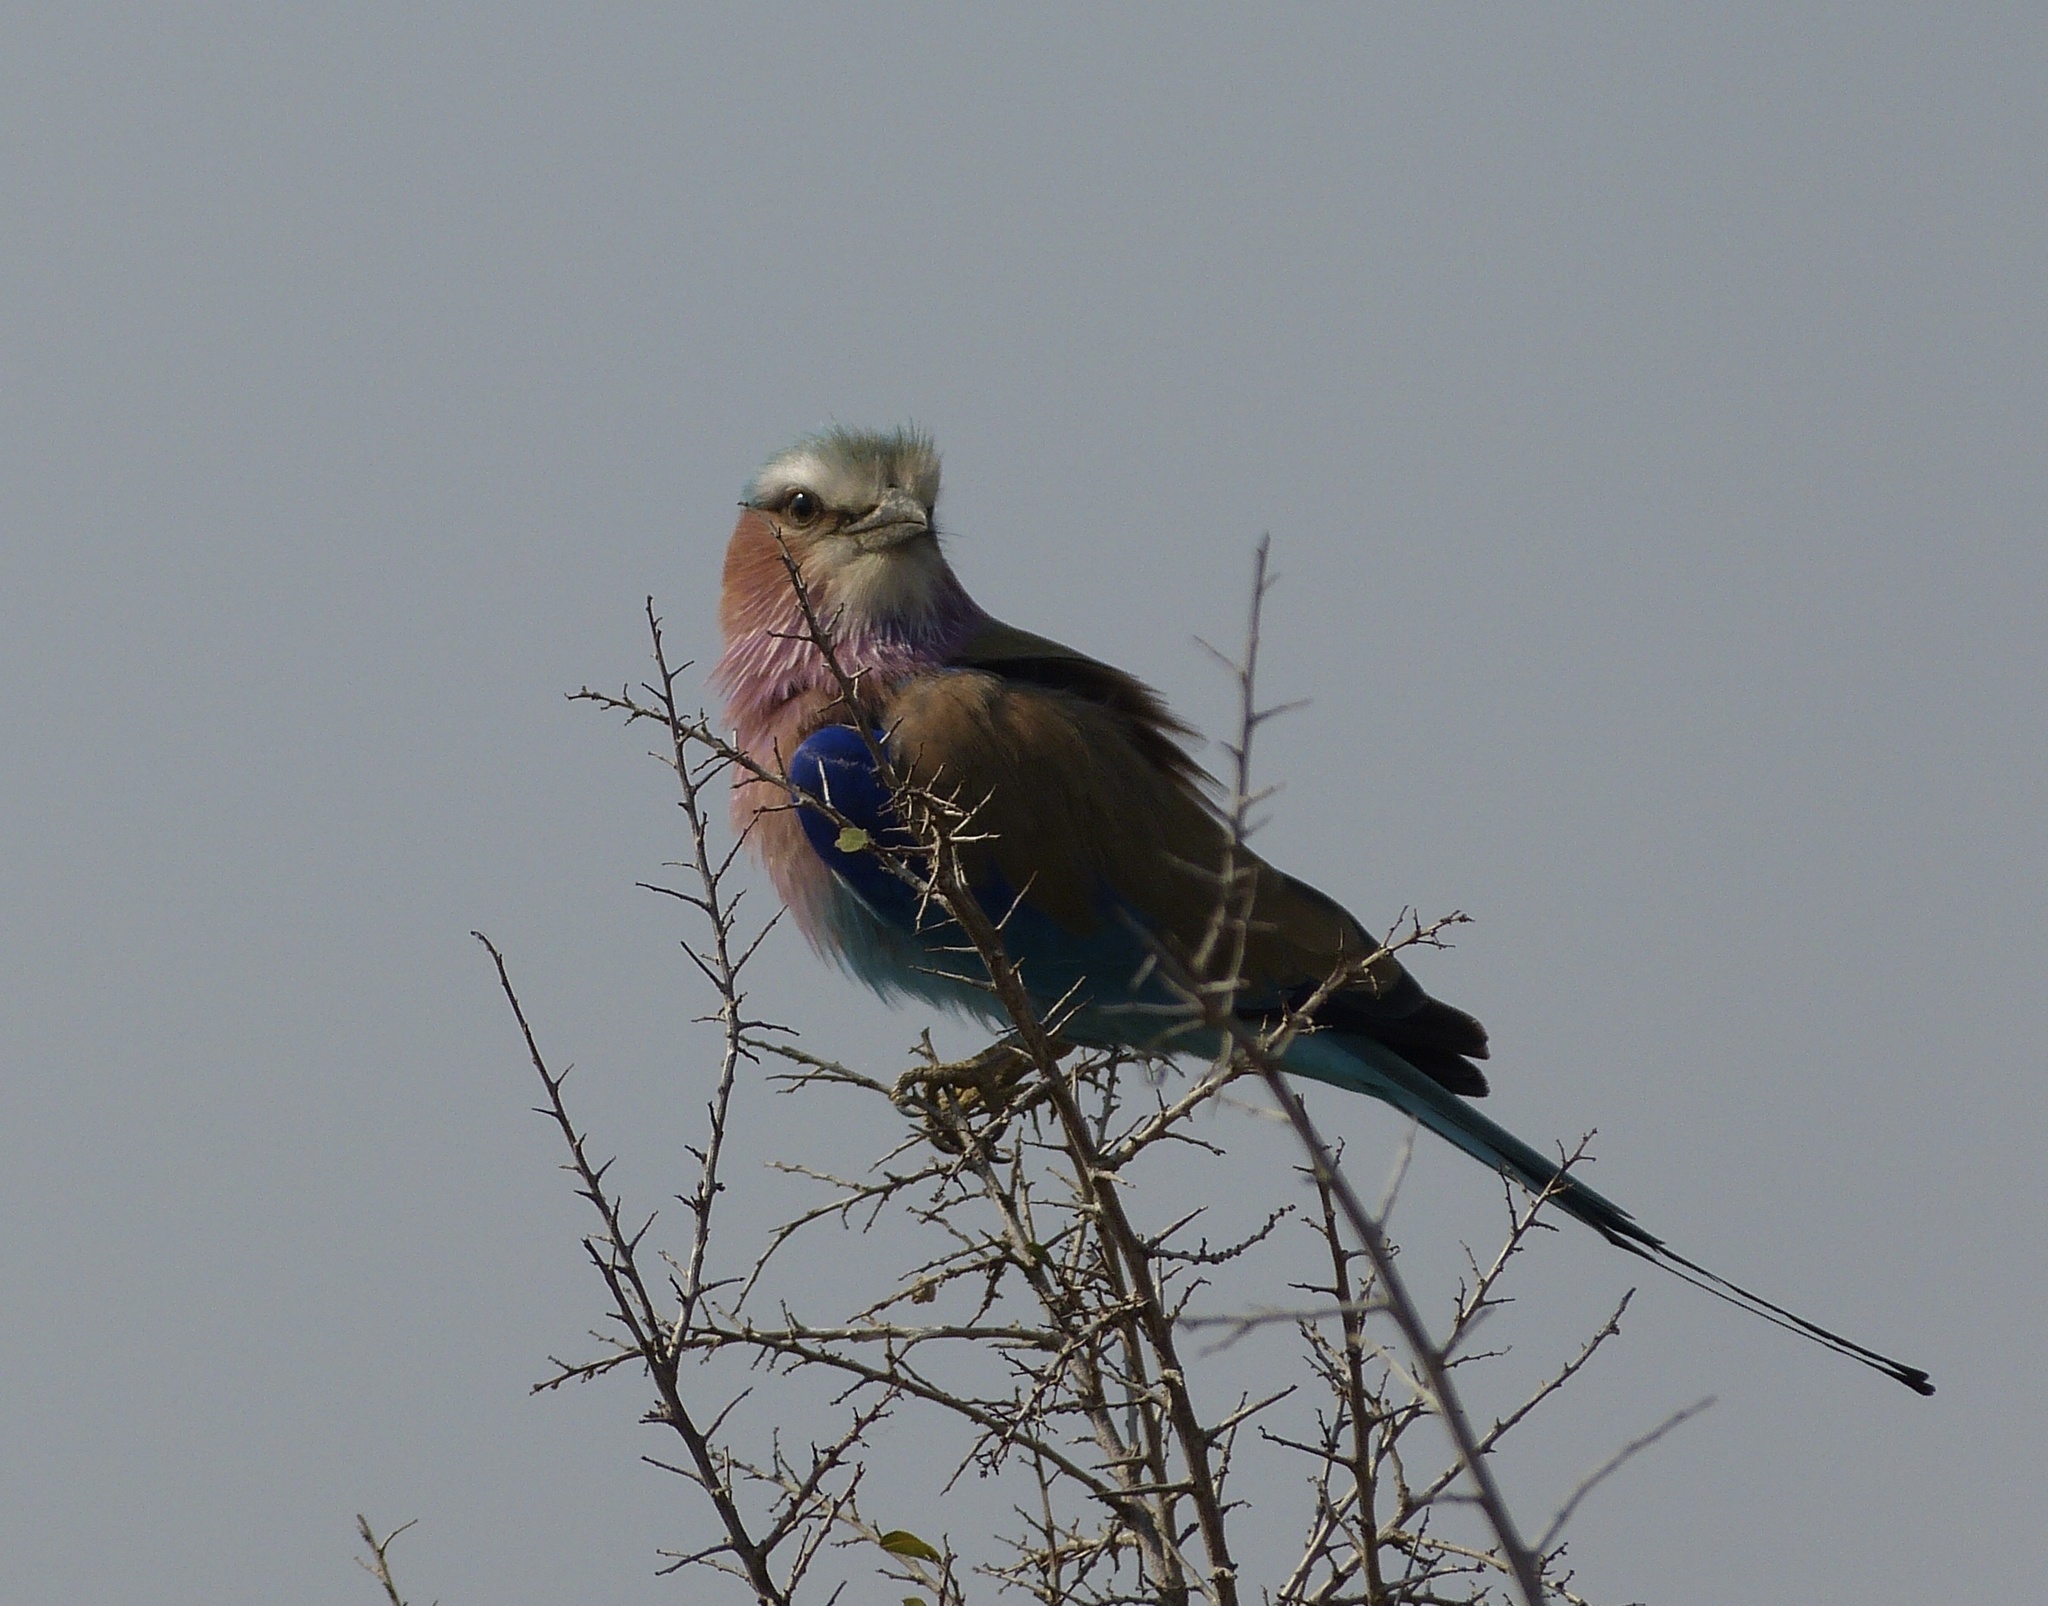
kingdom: Animalia
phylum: Chordata
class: Aves
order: Coraciiformes
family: Coraciidae
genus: Coracias
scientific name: Coracias caudatus
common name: Lilac-breasted roller
